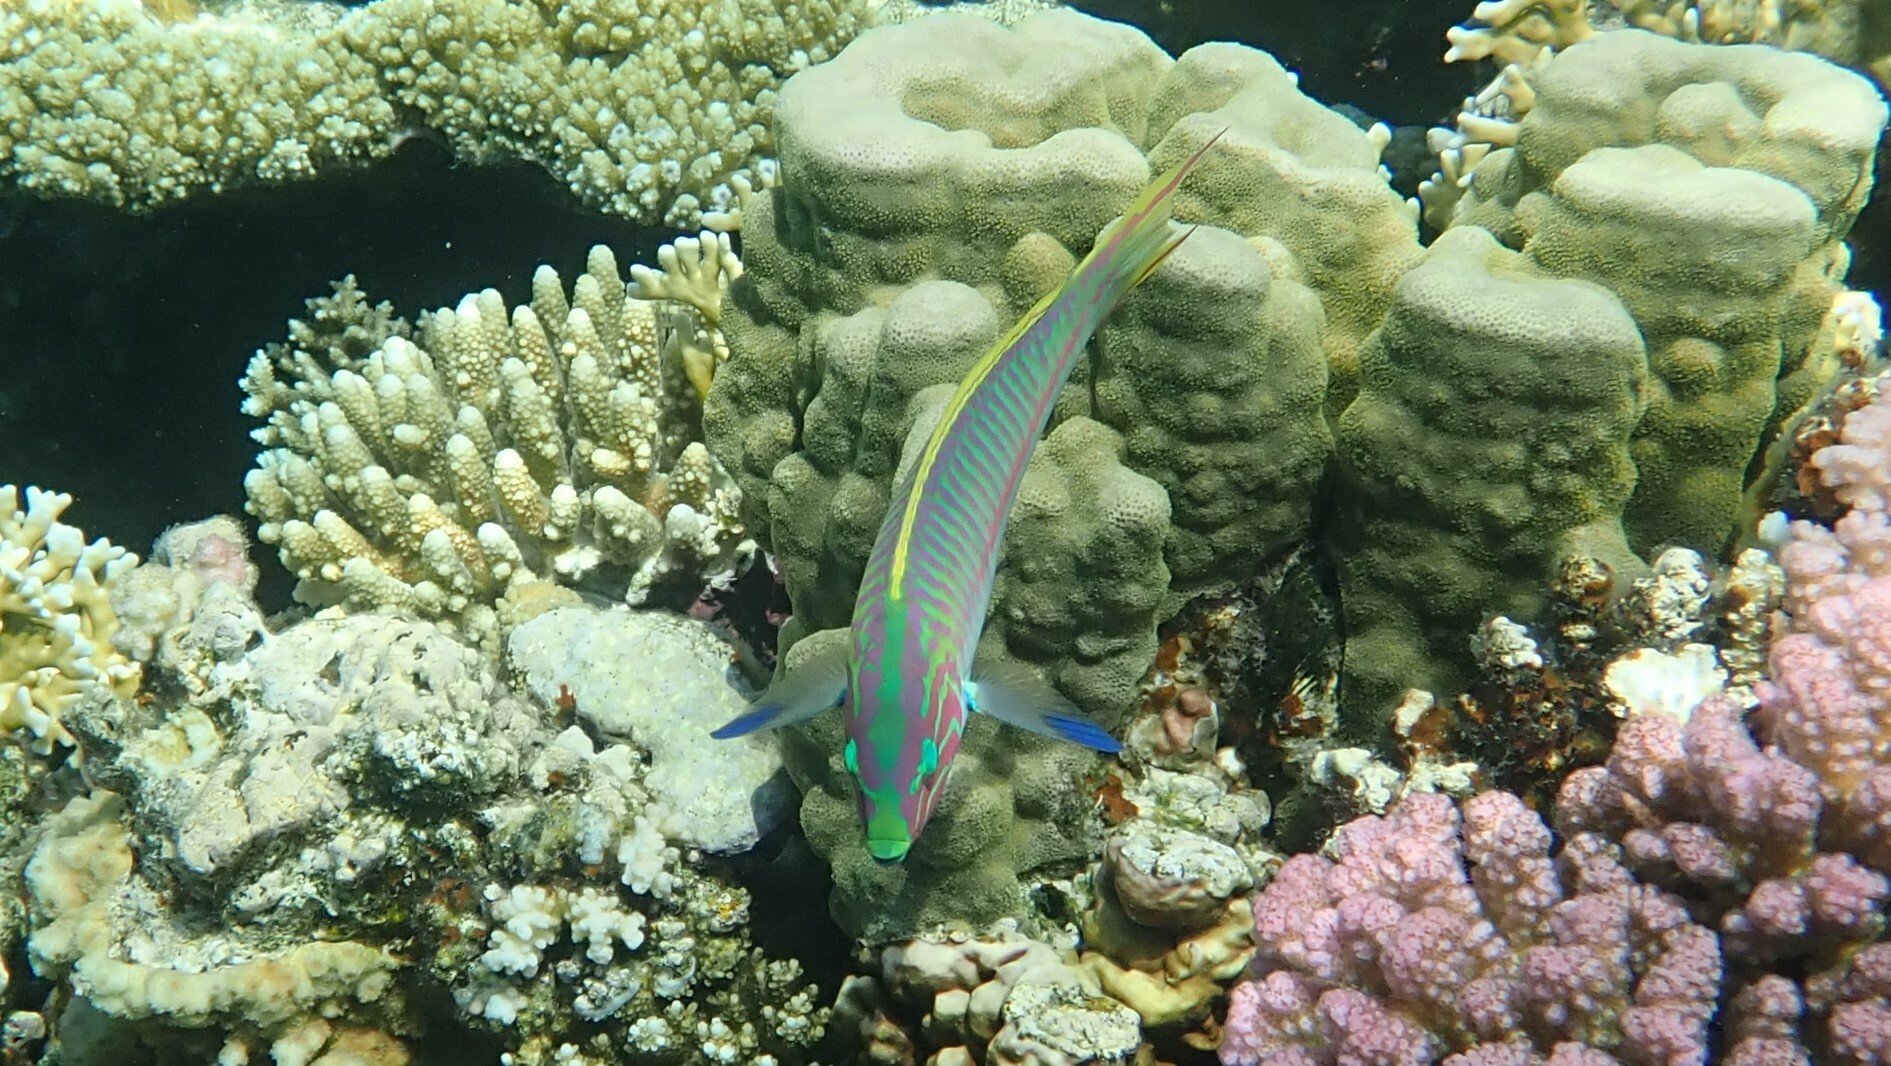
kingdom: Animalia
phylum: Chordata
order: Perciformes
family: Labridae
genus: Thalassoma
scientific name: Thalassoma rueppellii
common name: Klunzinger's wrasse
